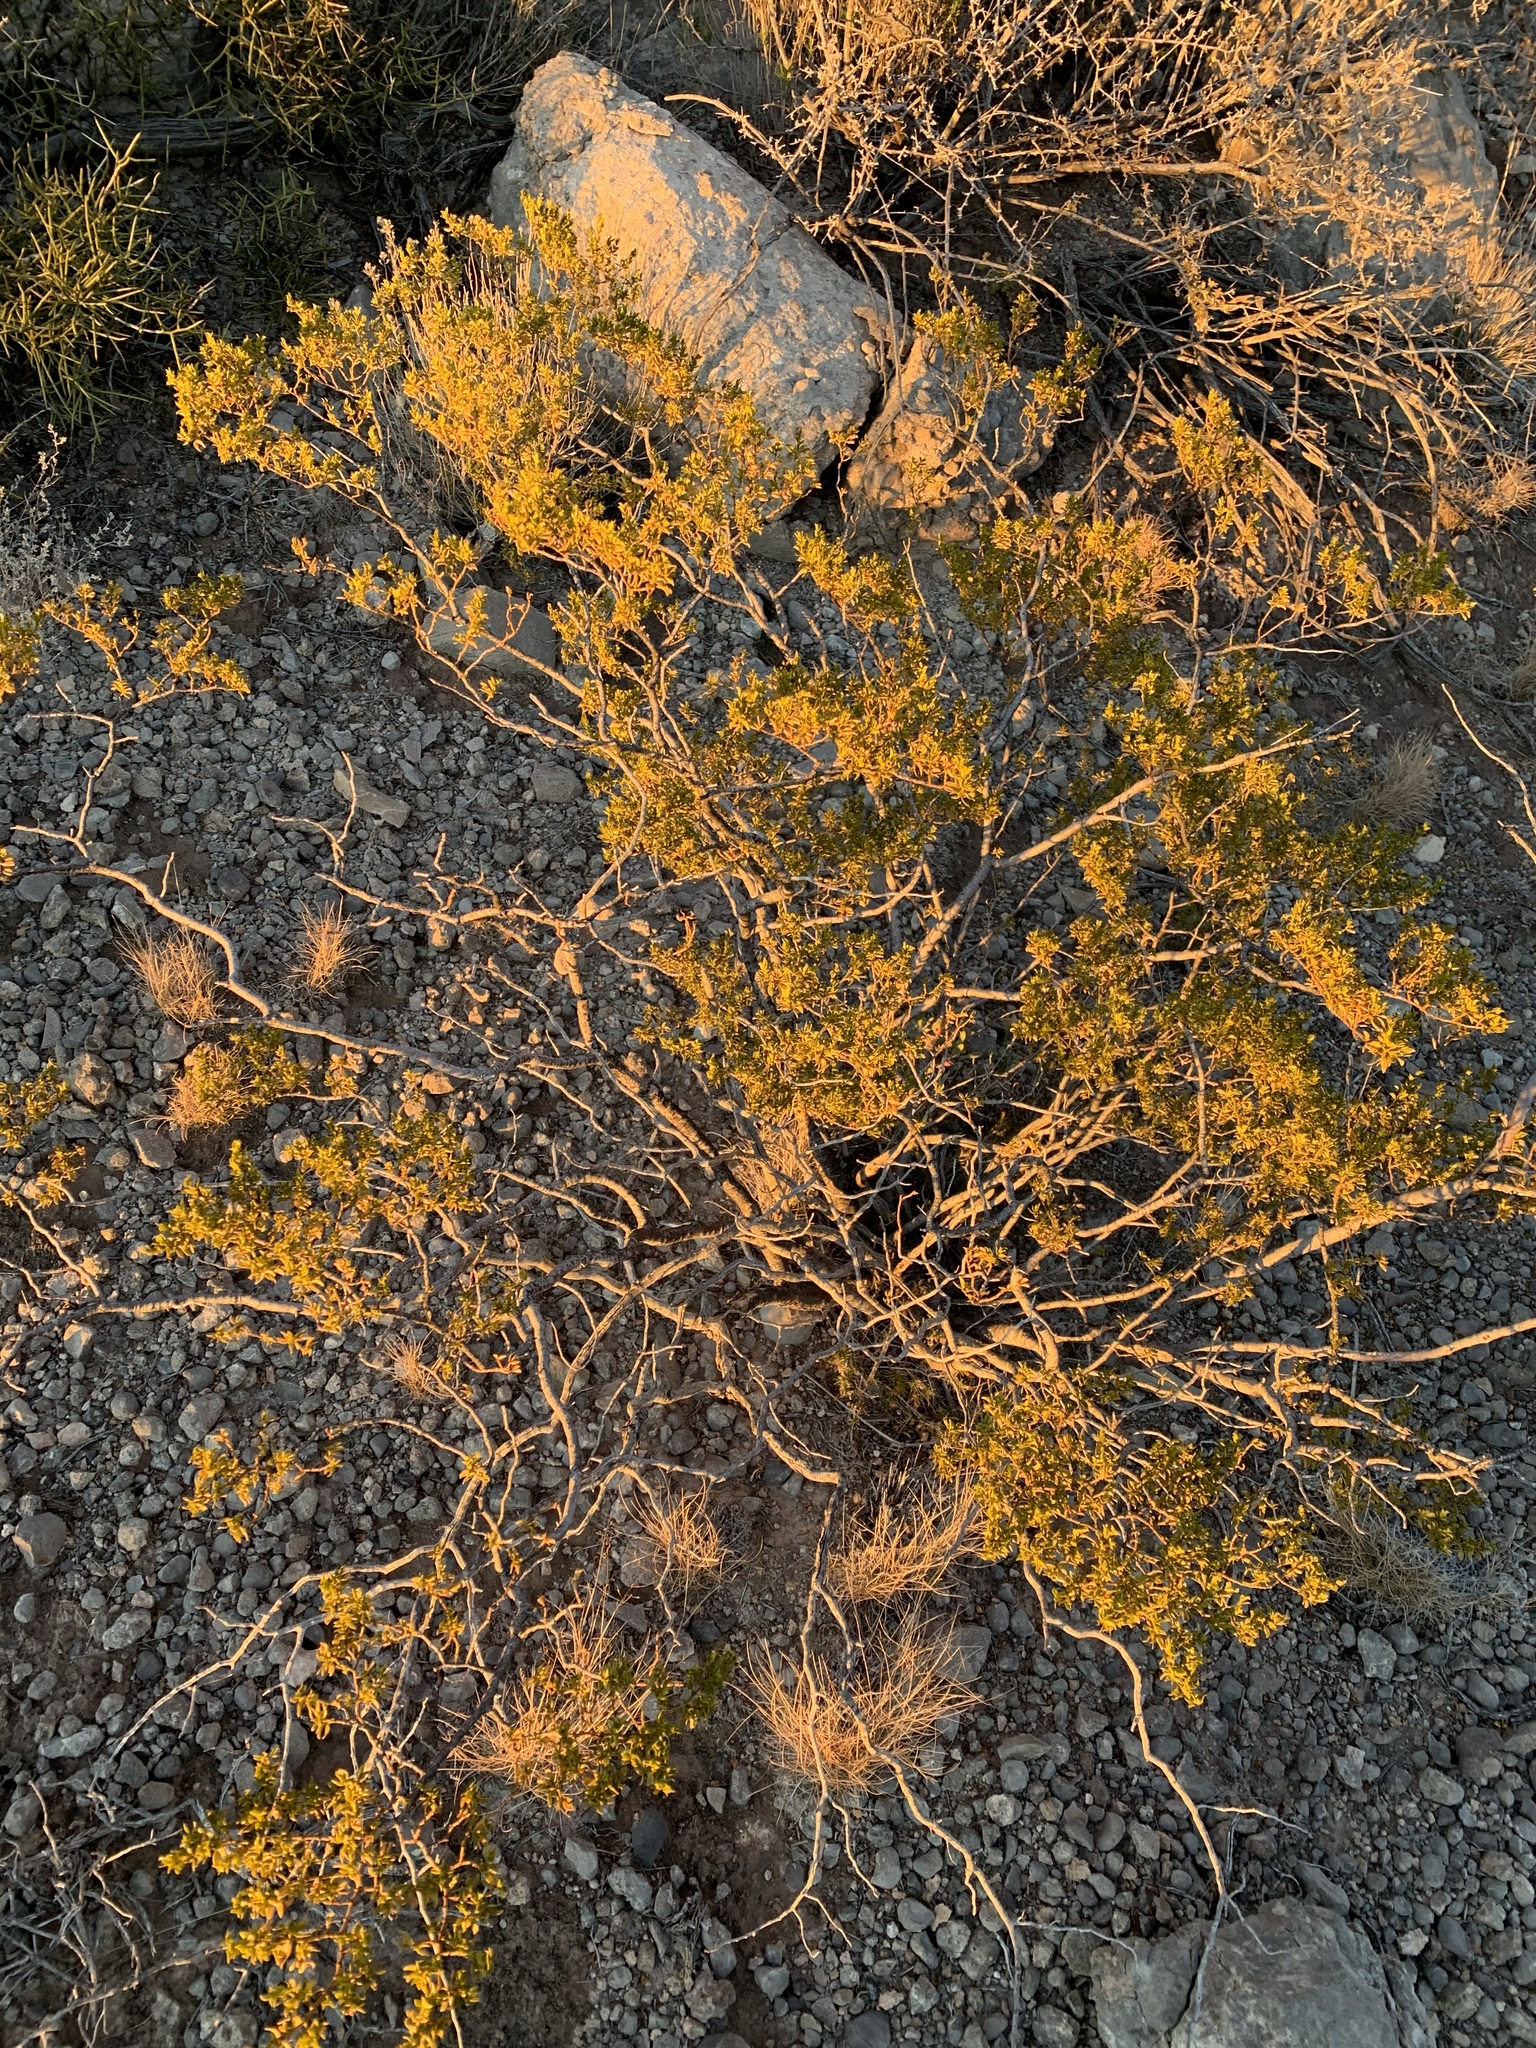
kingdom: Plantae
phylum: Tracheophyta
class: Magnoliopsida
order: Zygophyllales
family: Zygophyllaceae
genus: Larrea
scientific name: Larrea tridentata
